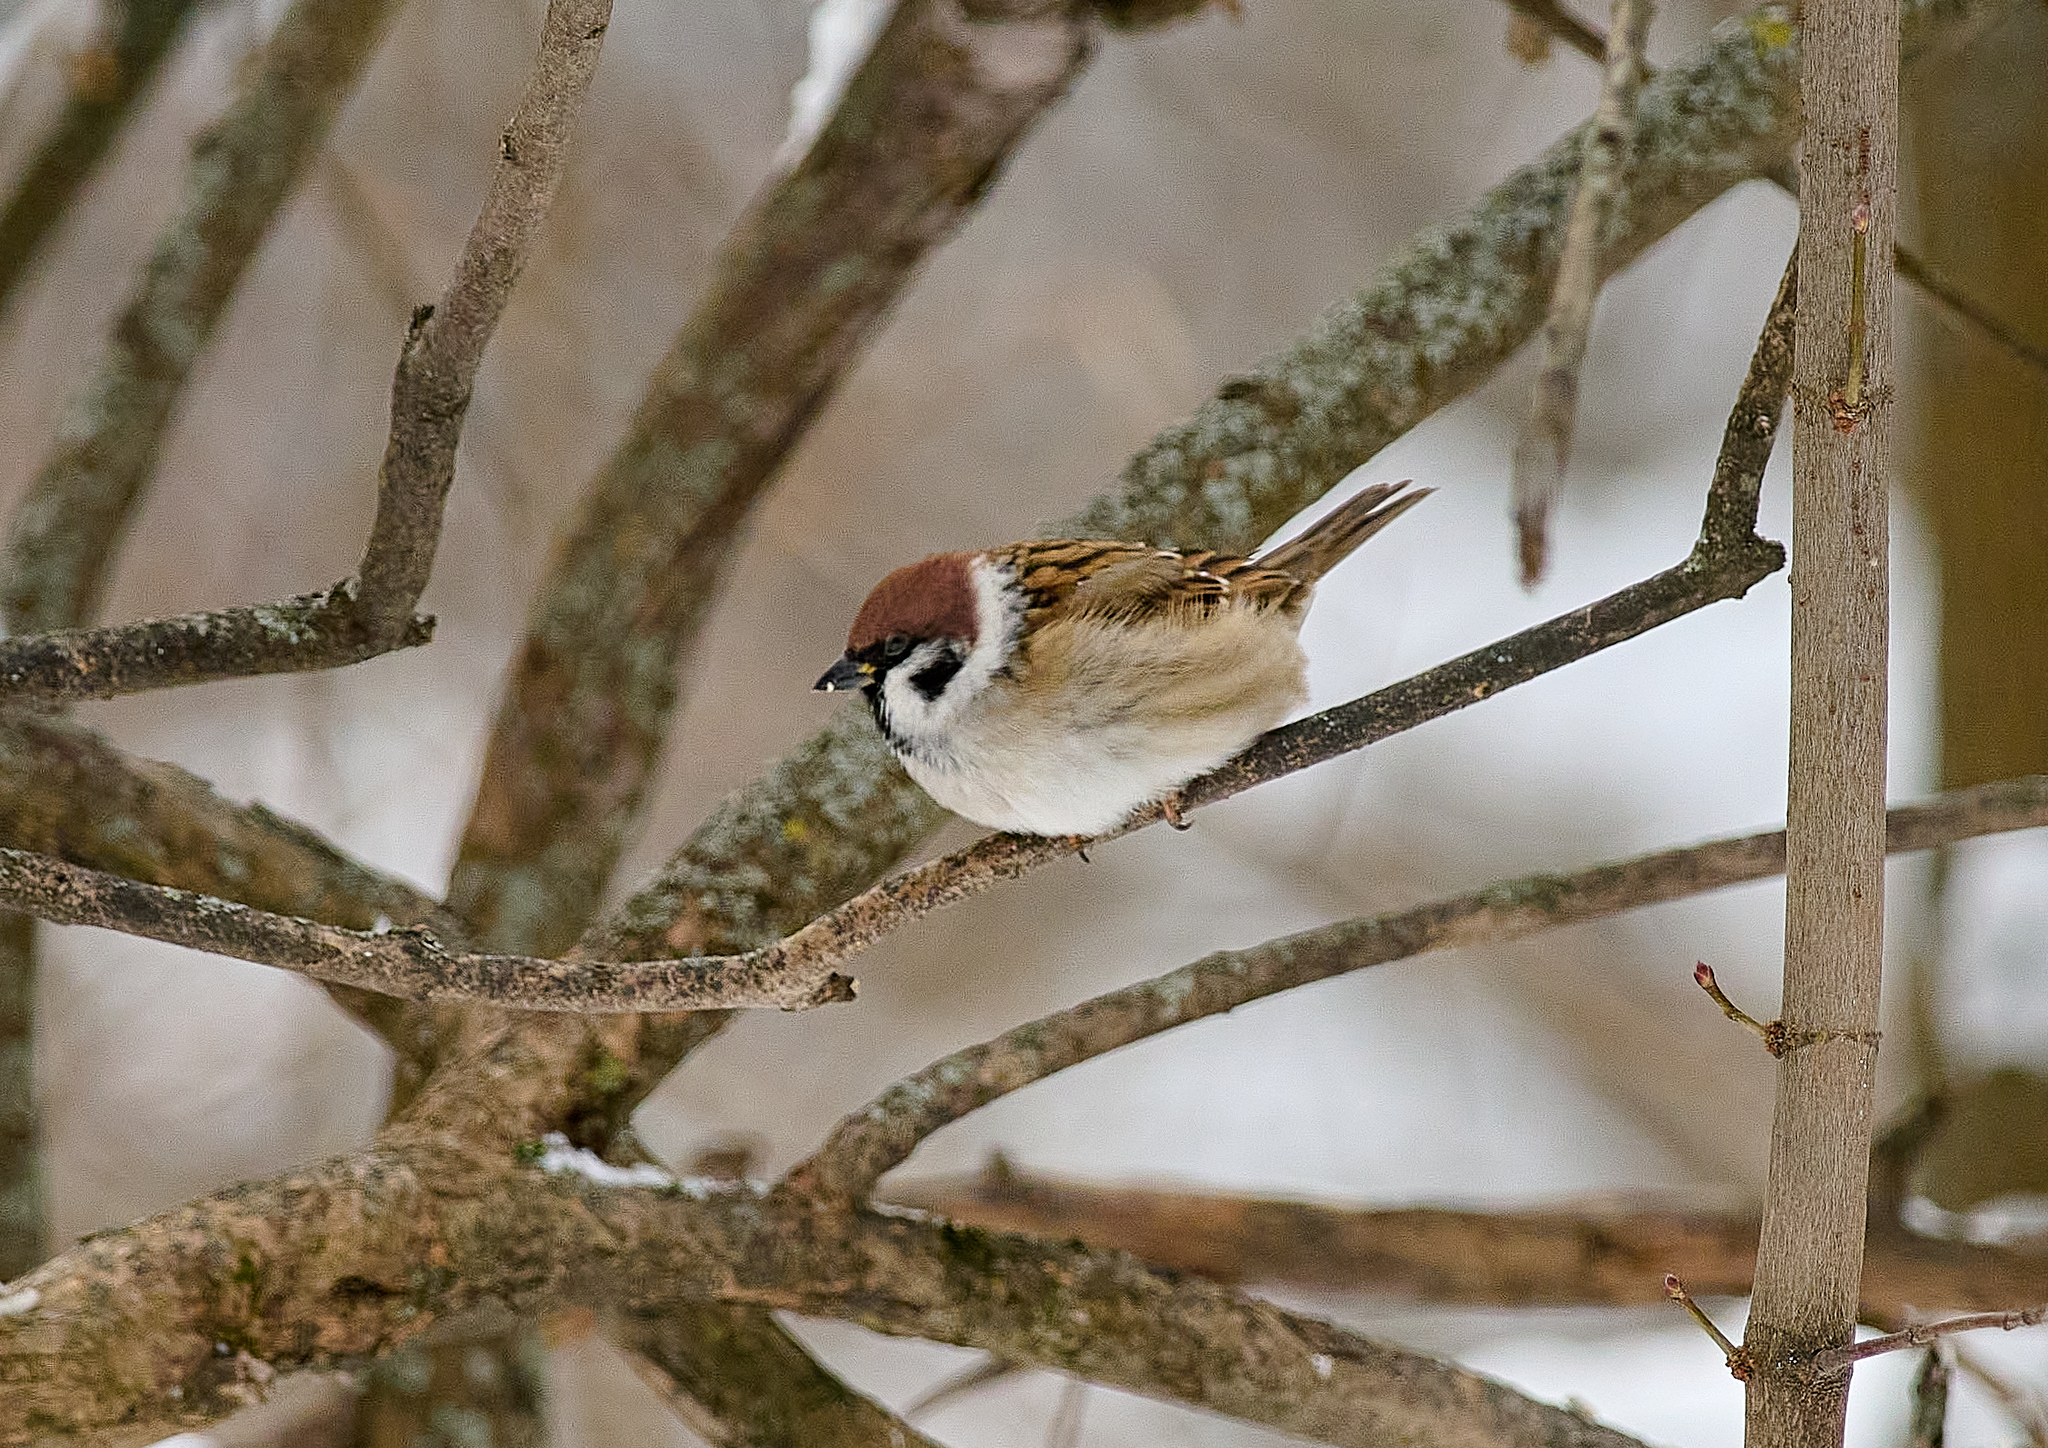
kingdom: Animalia
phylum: Chordata
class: Aves
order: Passeriformes
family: Passeridae
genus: Passer
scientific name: Passer montanus
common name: Eurasian tree sparrow
